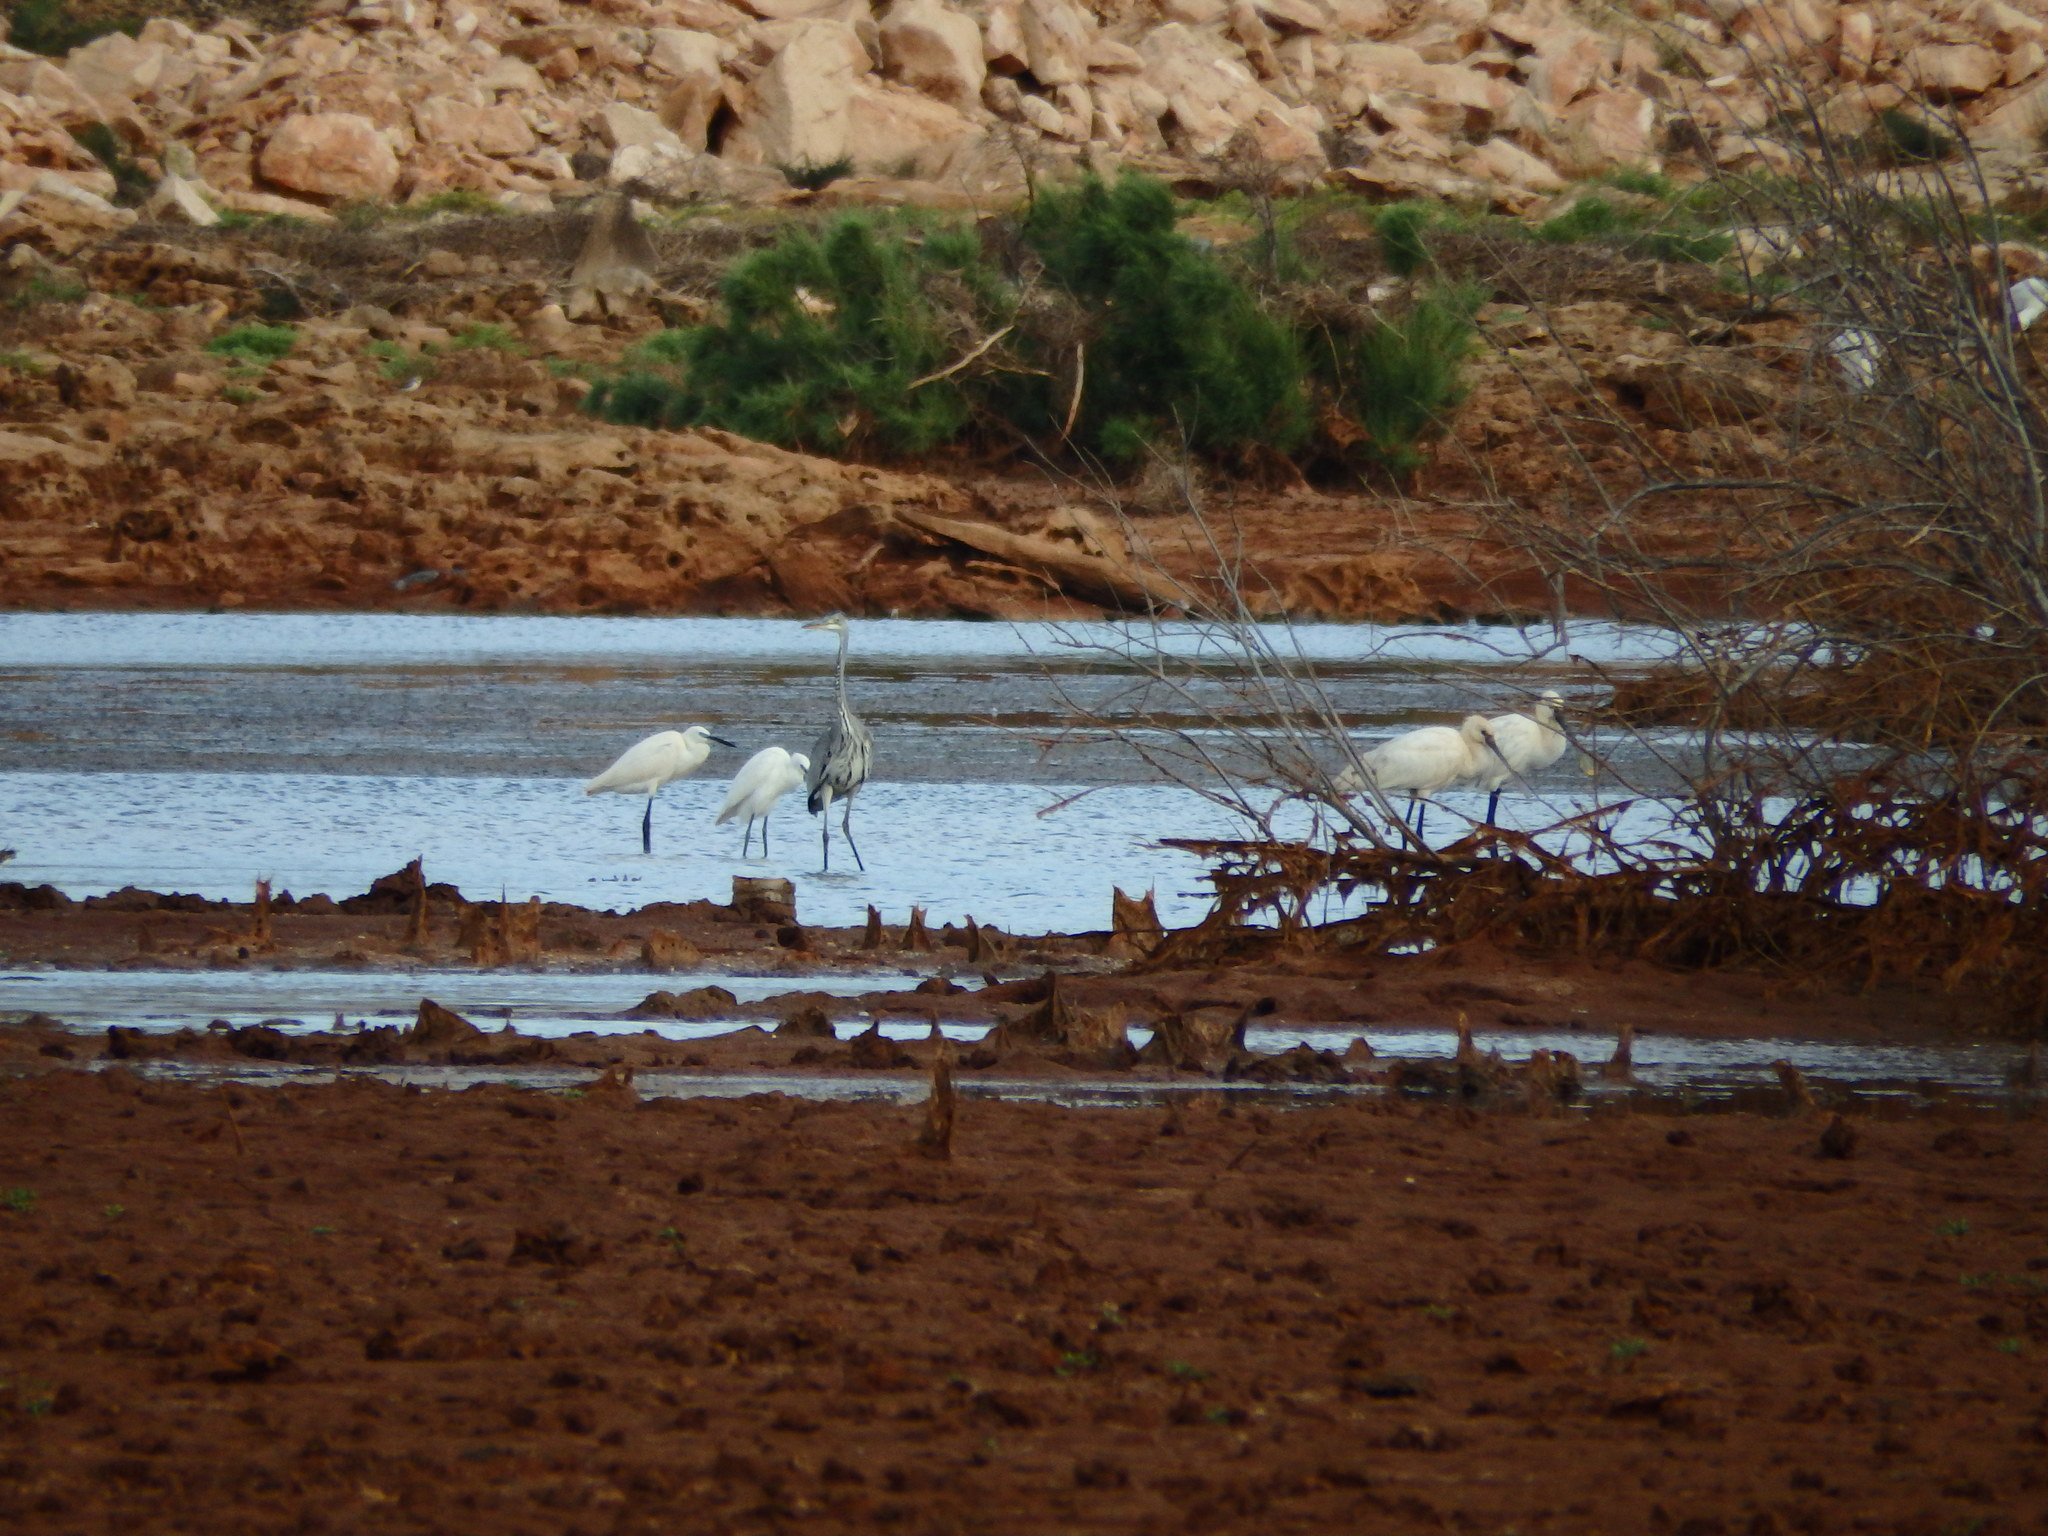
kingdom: Animalia
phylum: Chordata
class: Aves
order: Pelecaniformes
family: Ardeidae
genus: Egretta
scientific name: Egretta garzetta
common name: Little egret
